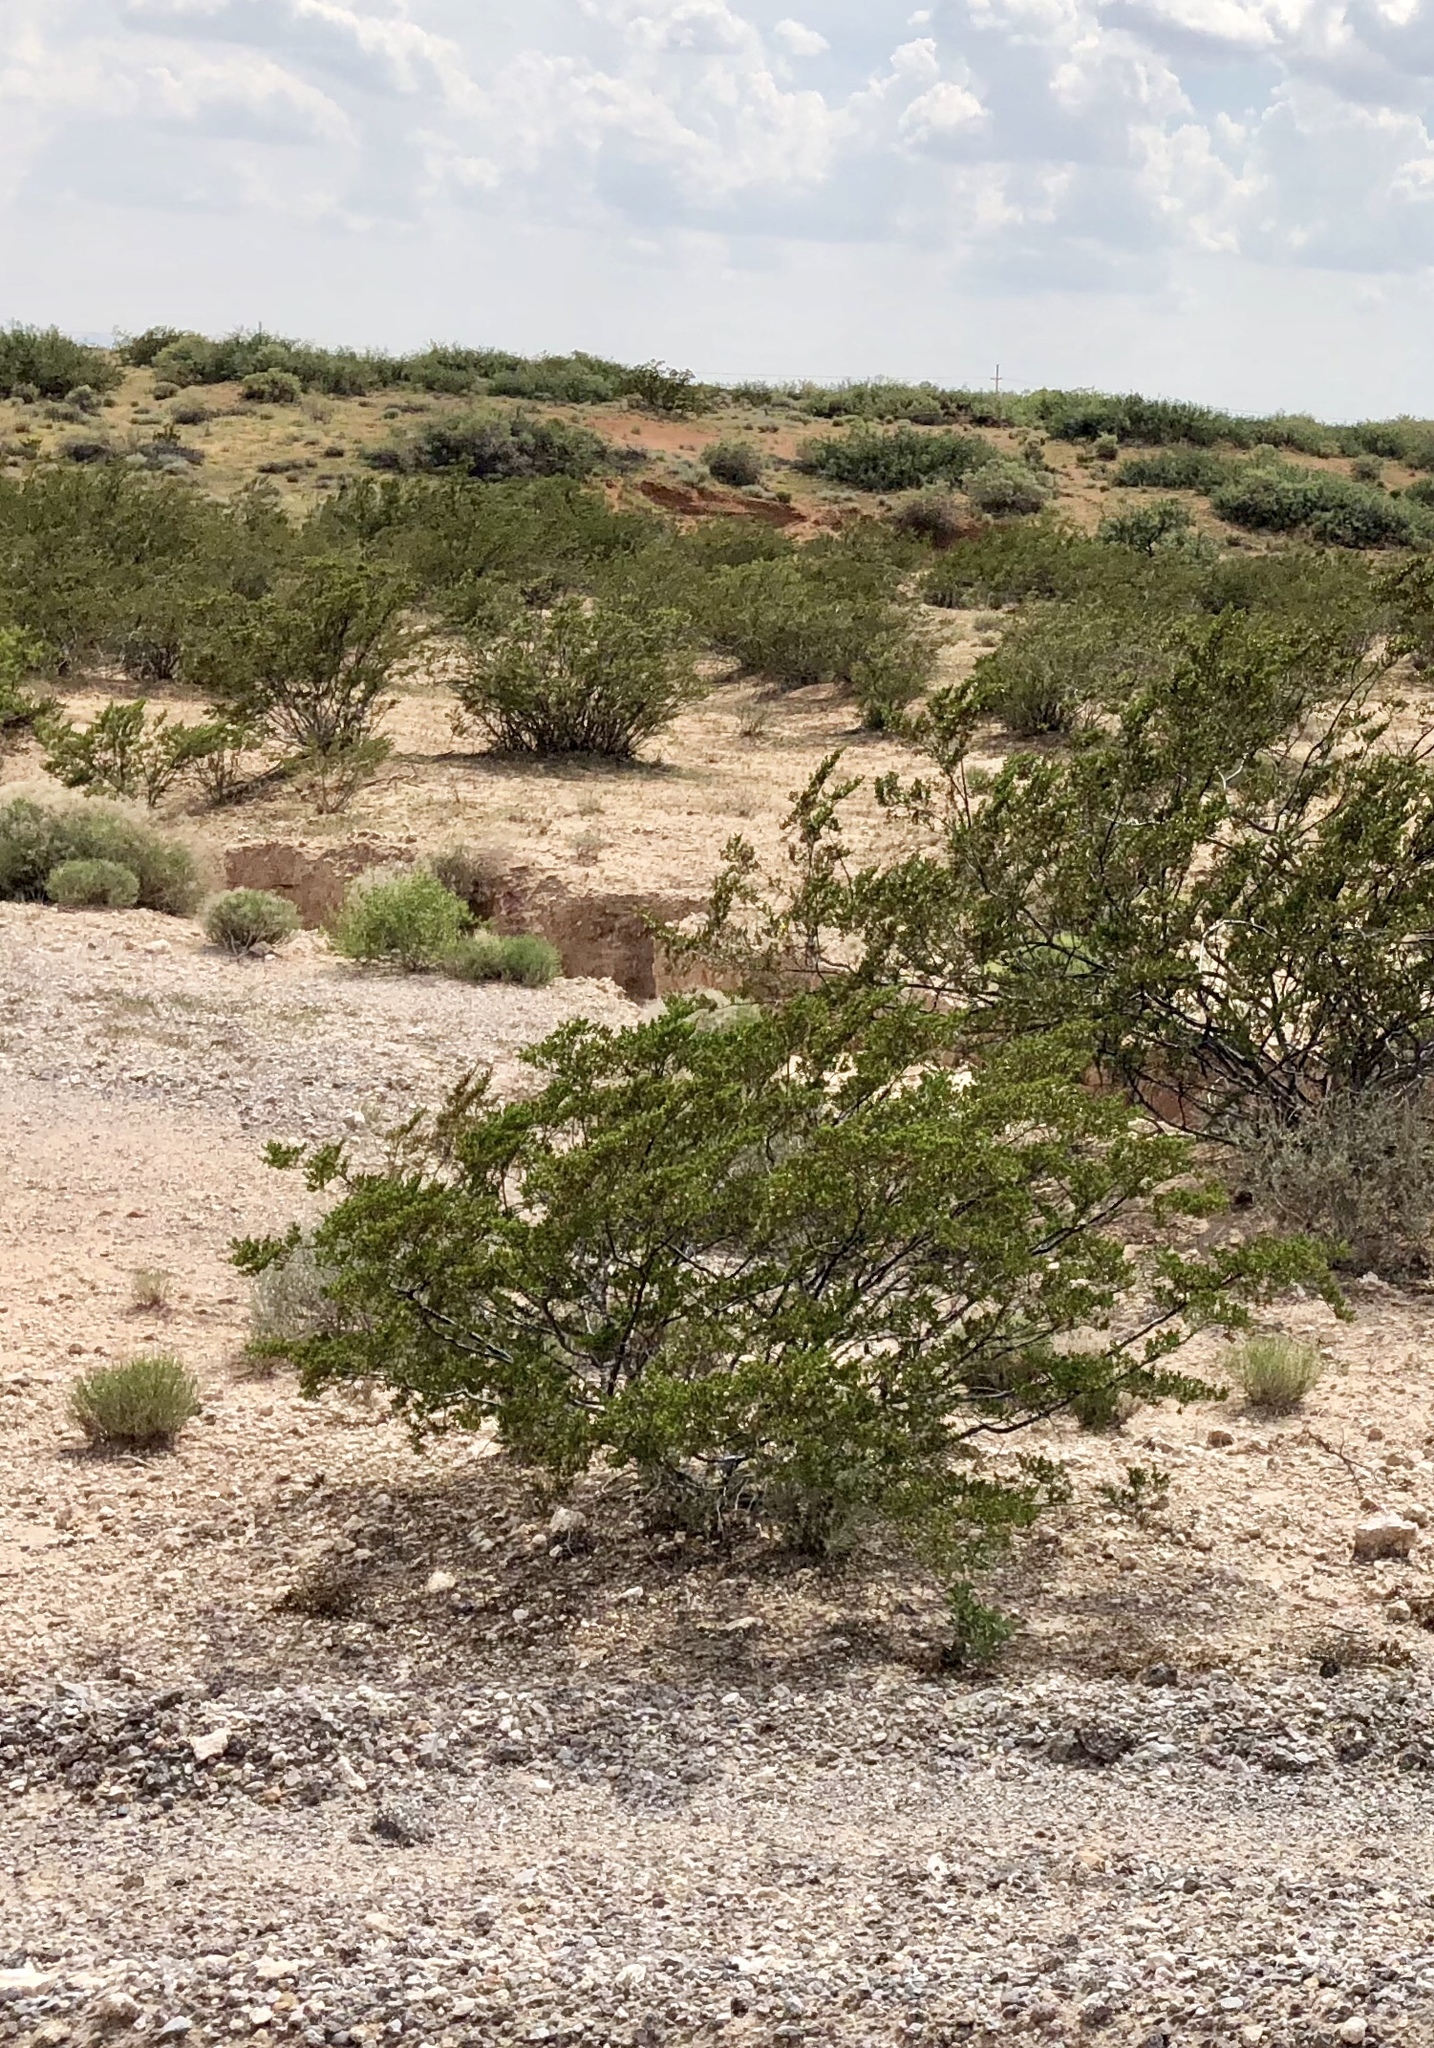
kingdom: Plantae
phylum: Tracheophyta
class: Magnoliopsida
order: Zygophyllales
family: Zygophyllaceae
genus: Larrea
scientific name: Larrea tridentata
